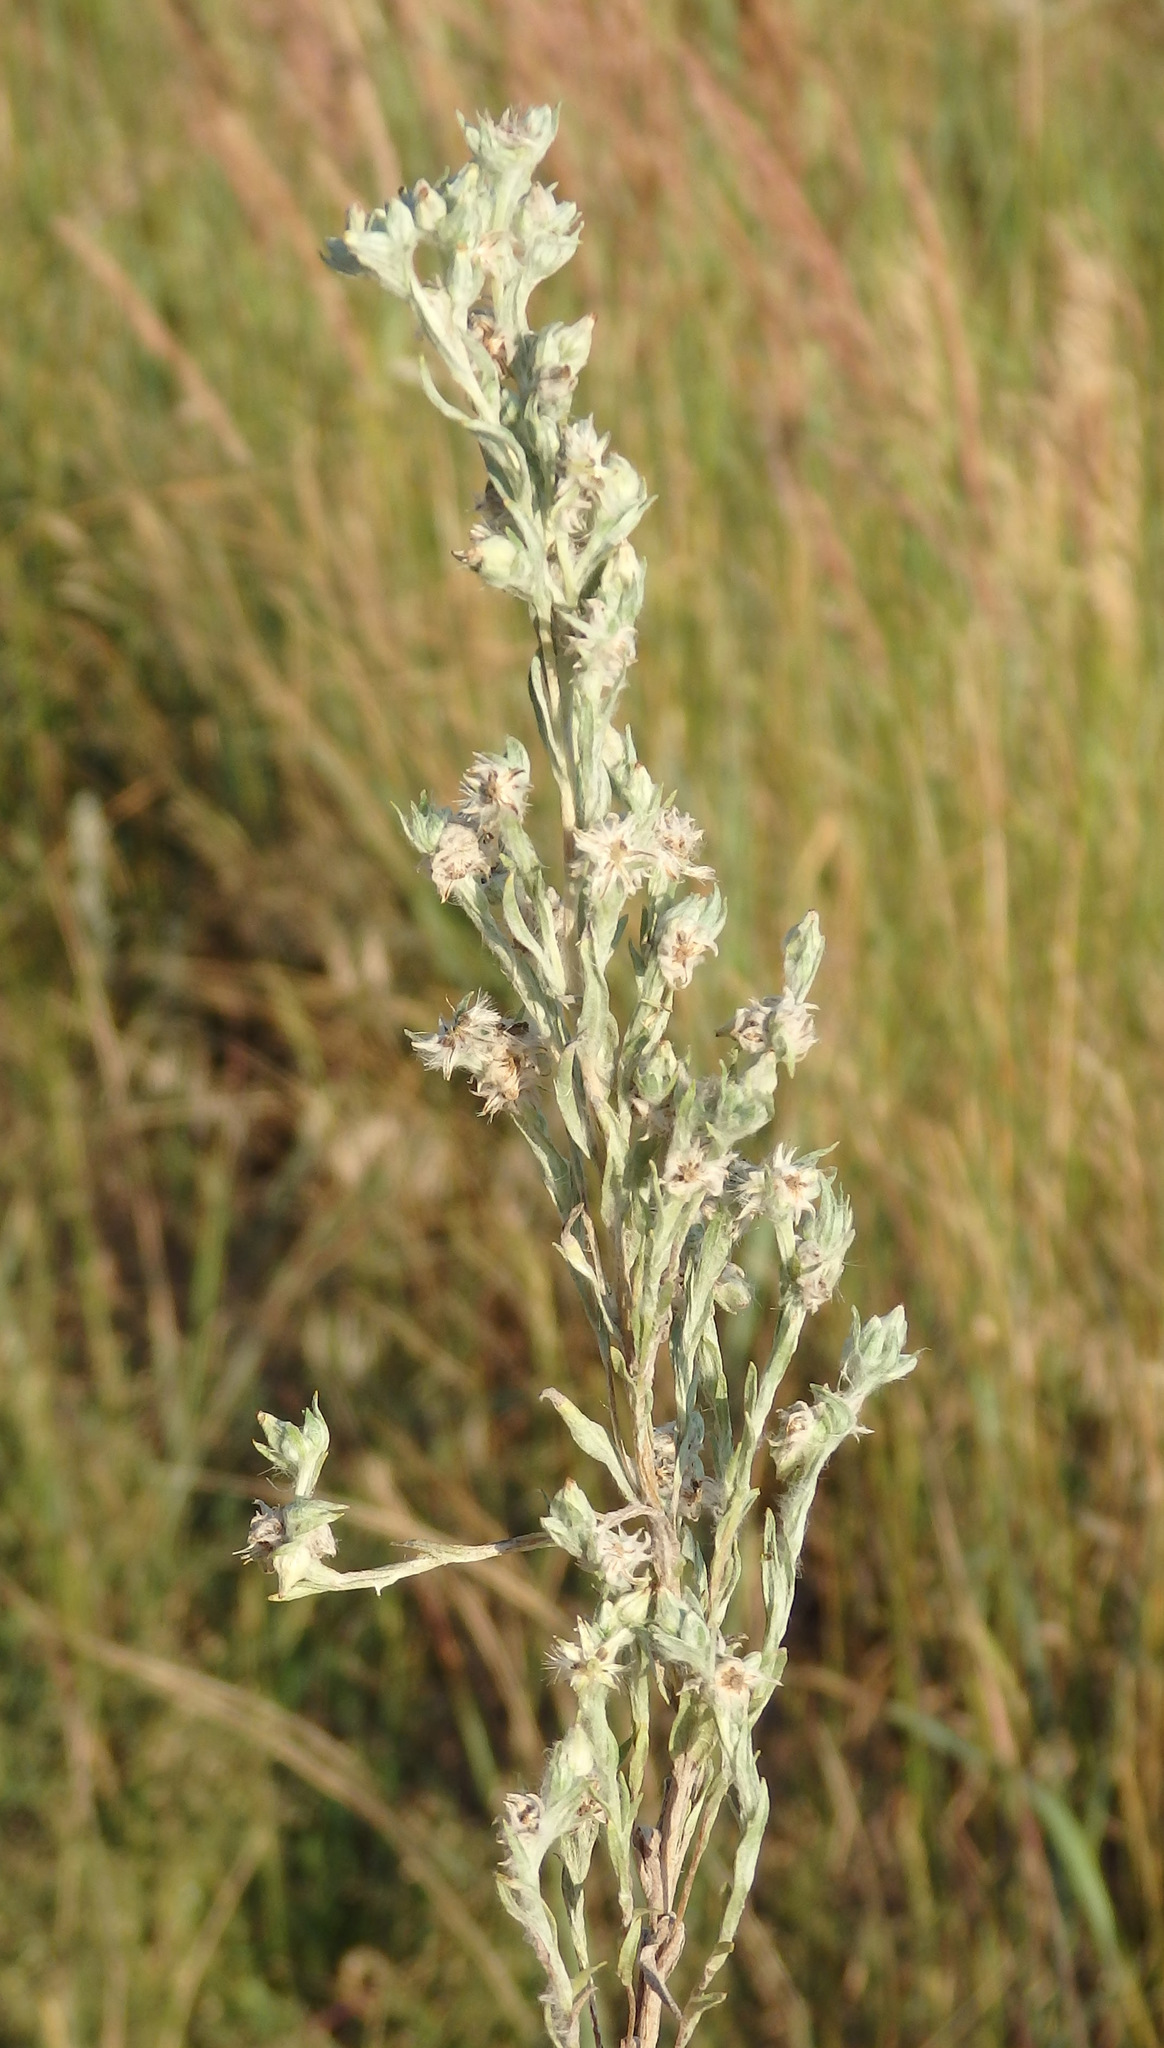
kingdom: Plantae
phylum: Tracheophyta
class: Magnoliopsida
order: Asterales
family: Asteraceae
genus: Filago
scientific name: Filago arvensis
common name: Field cudweed
